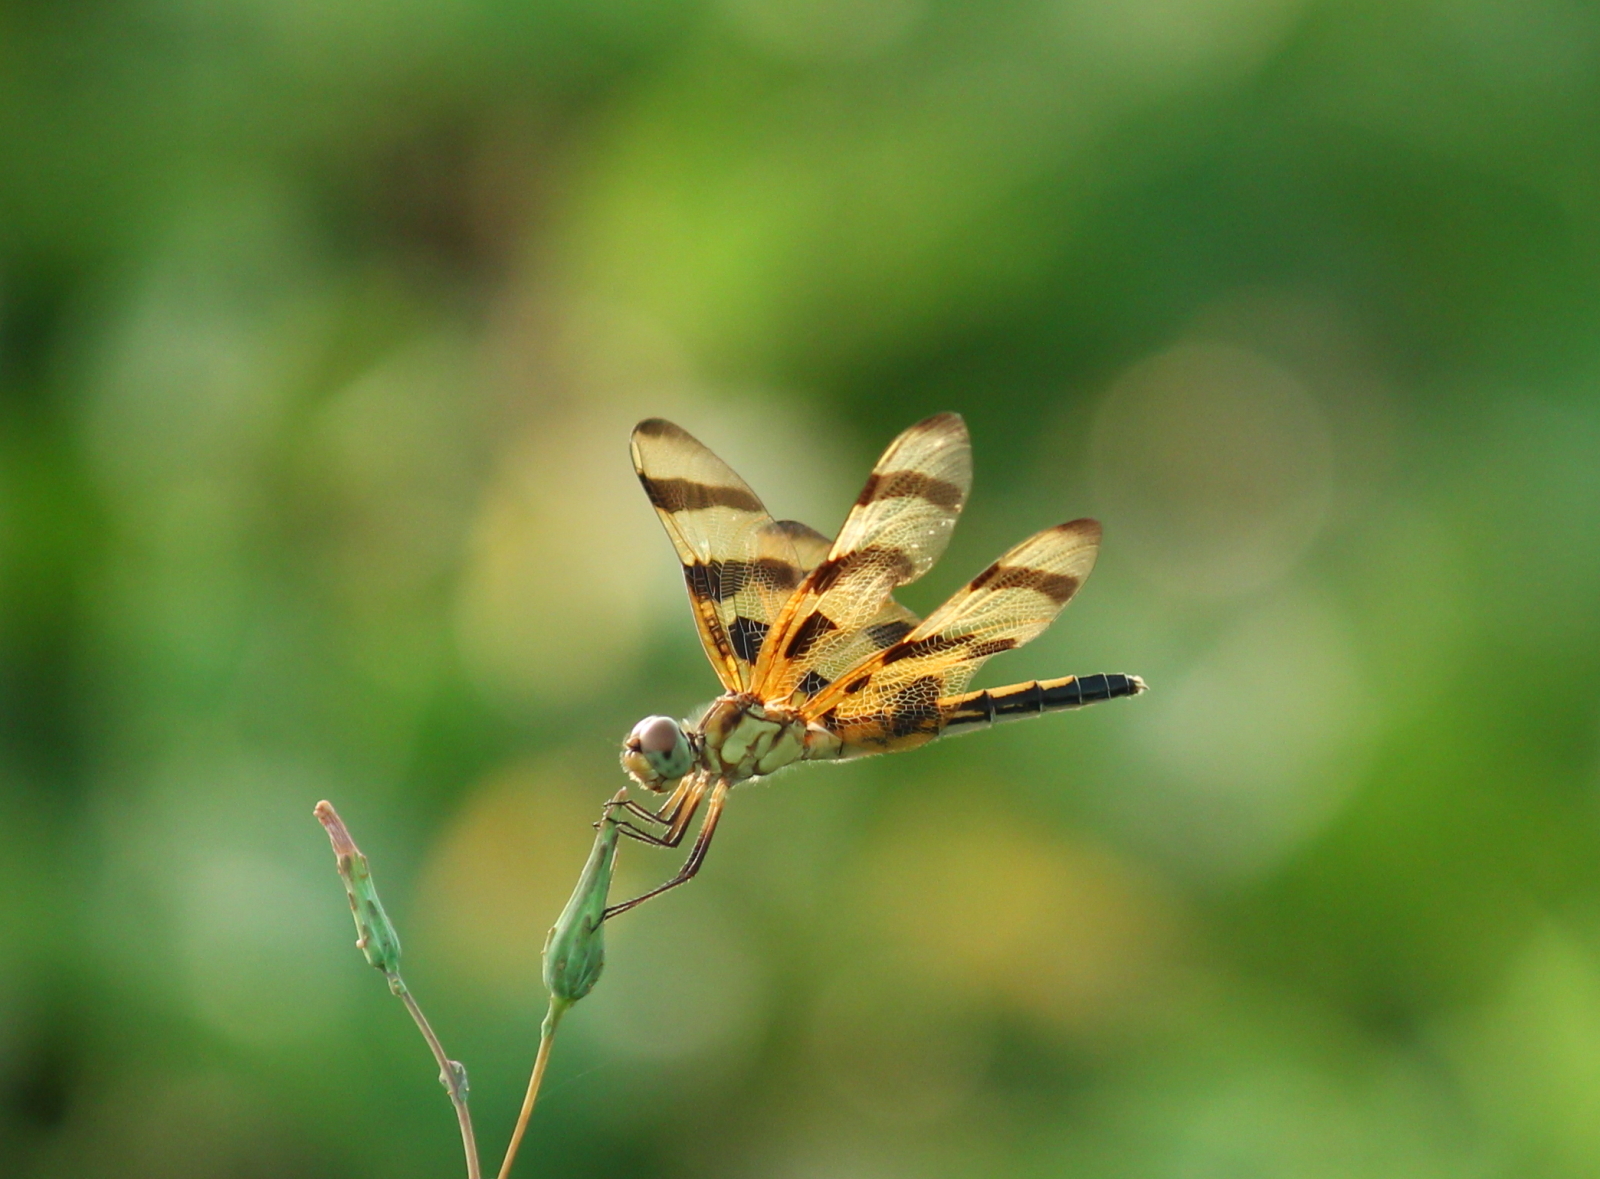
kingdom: Animalia
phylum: Arthropoda
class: Insecta
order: Odonata
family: Libellulidae
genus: Celithemis
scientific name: Celithemis eponina
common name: Halloween pennant
